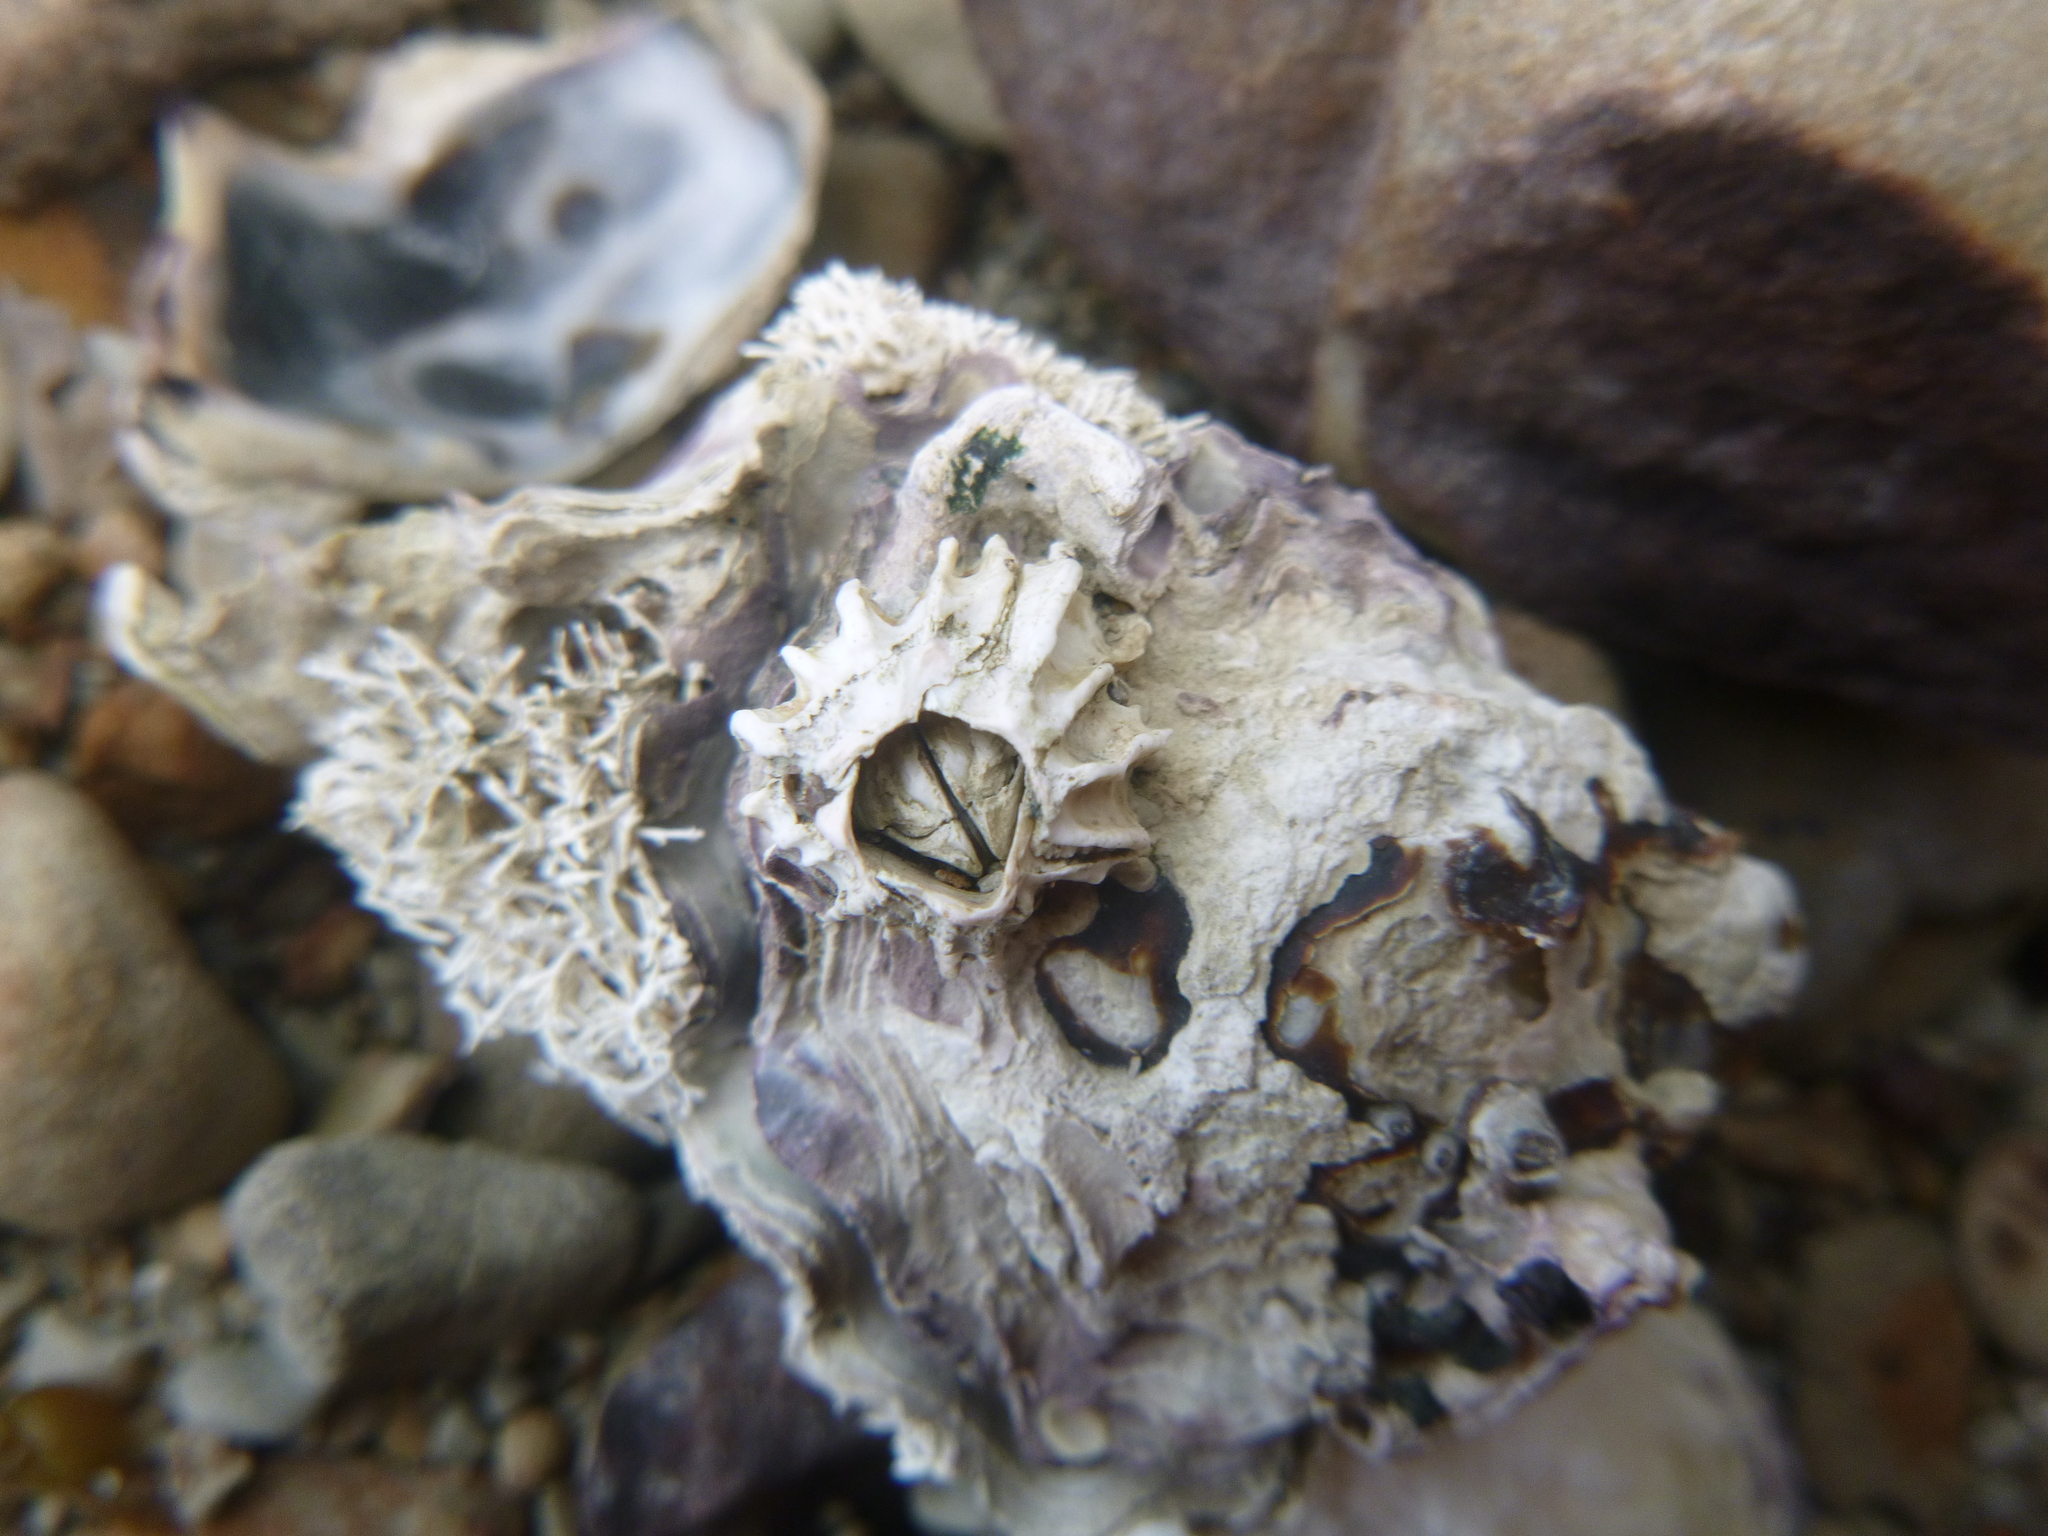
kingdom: Animalia
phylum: Arthropoda
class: Maxillopoda
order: Sessilia
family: Tetraclitidae
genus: Epopella
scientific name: Epopella plicata
